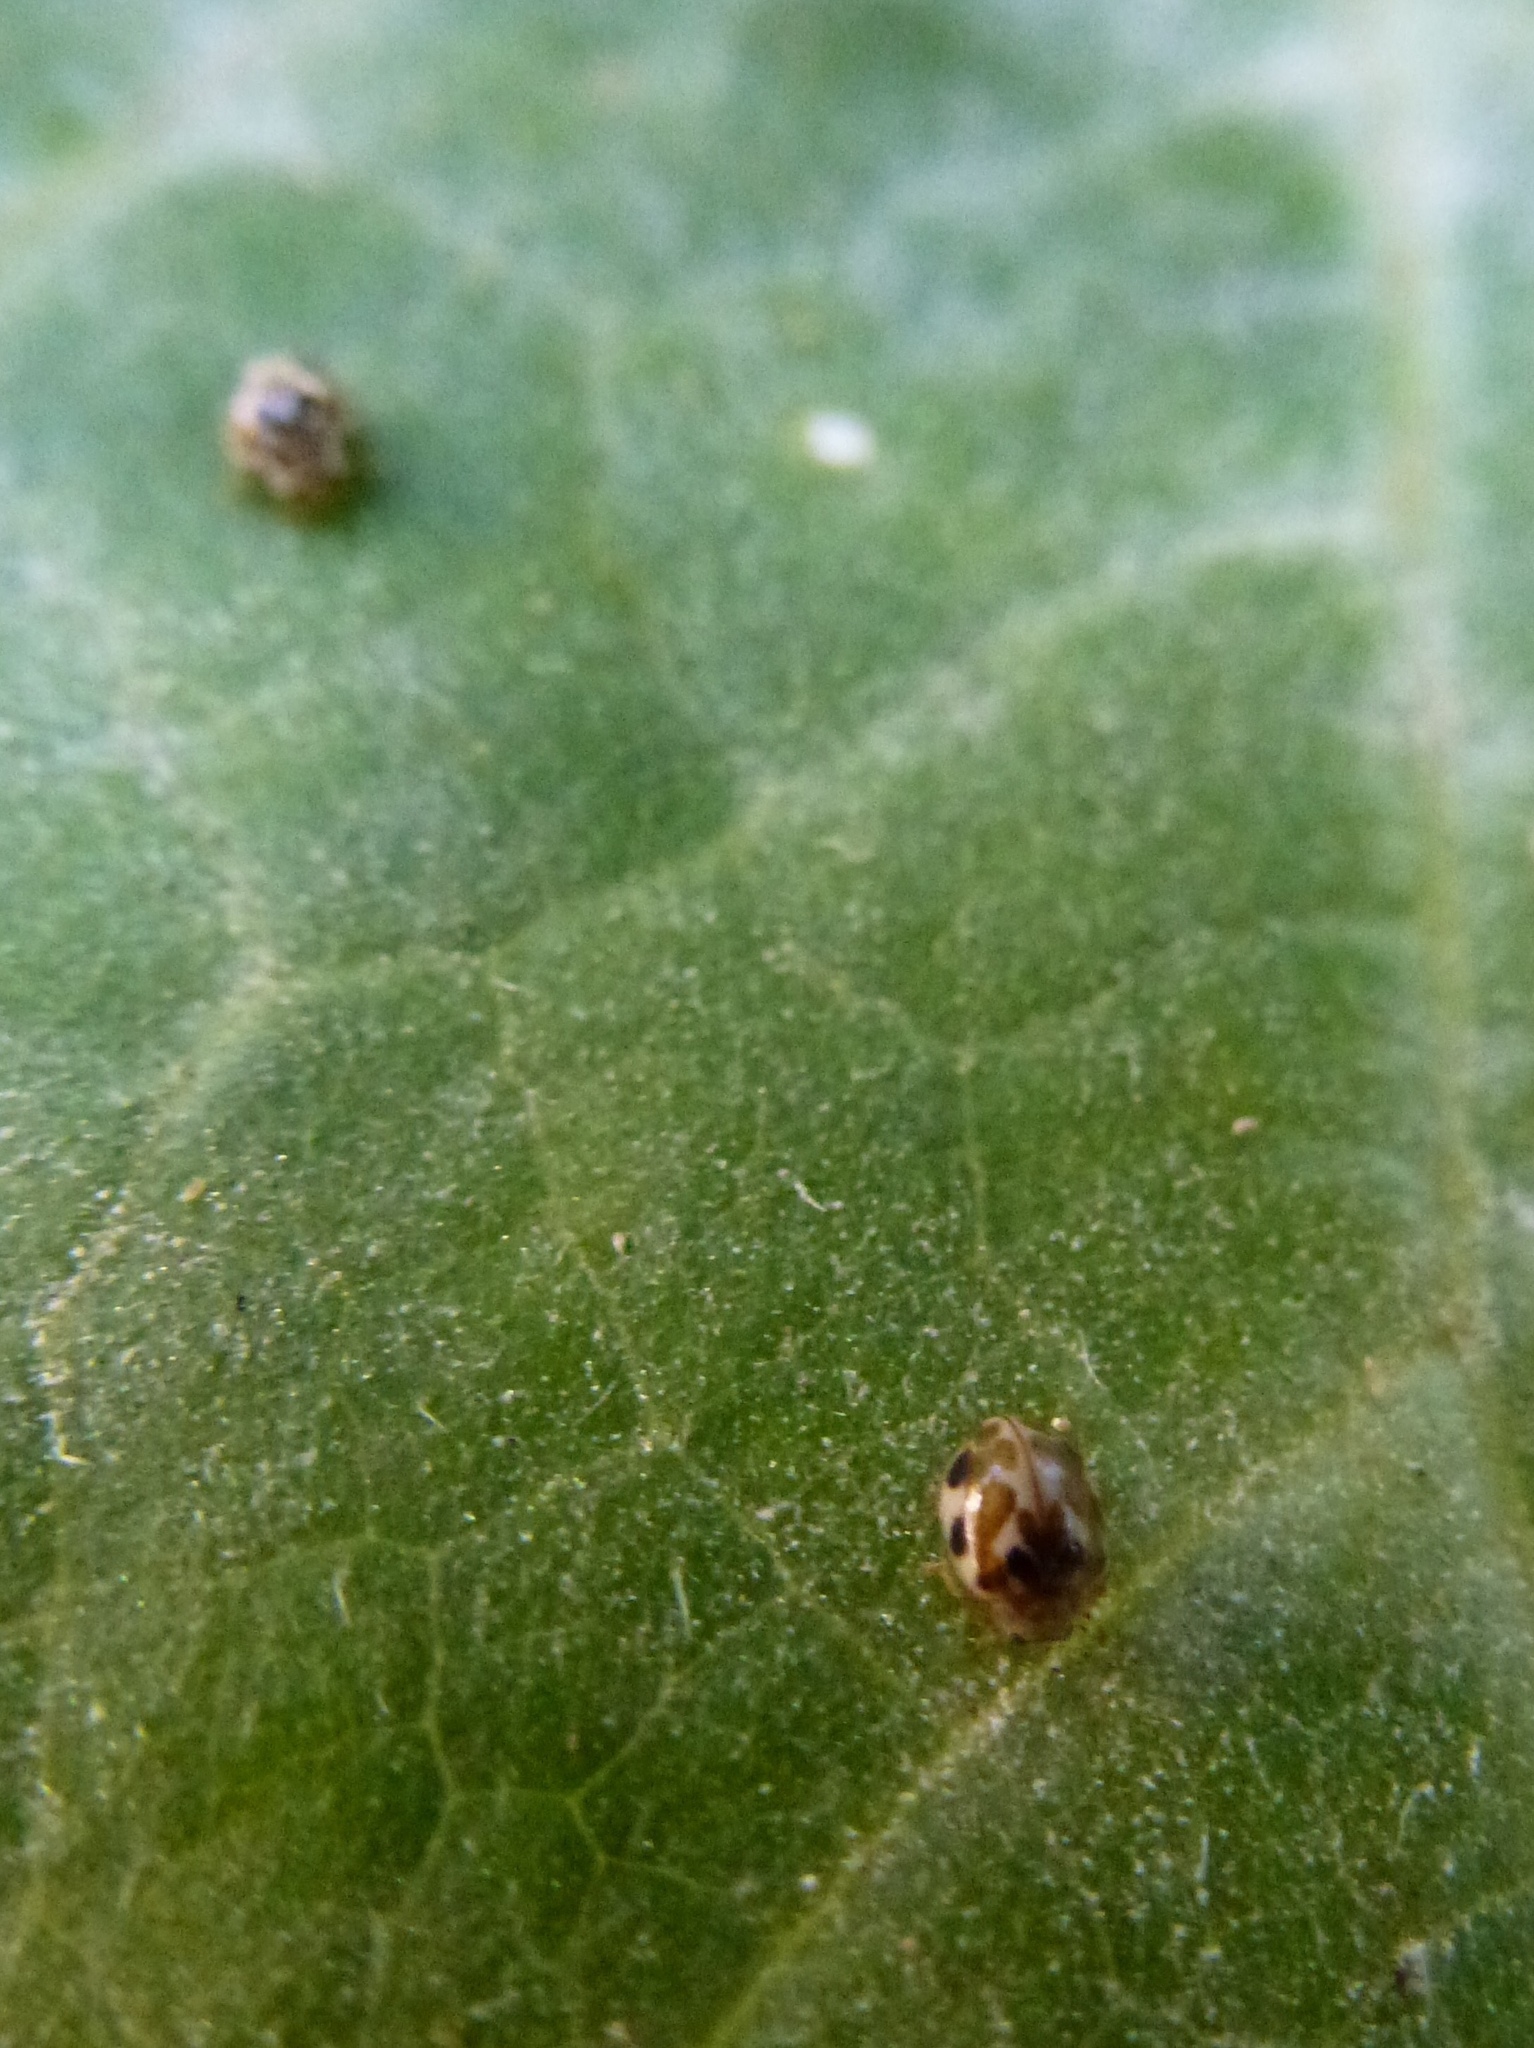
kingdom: Animalia
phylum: Arthropoda
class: Insecta
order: Coleoptera
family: Coccinellidae
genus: Psyllobora
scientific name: Psyllobora vigintimaculata
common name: Ladybird beetle
